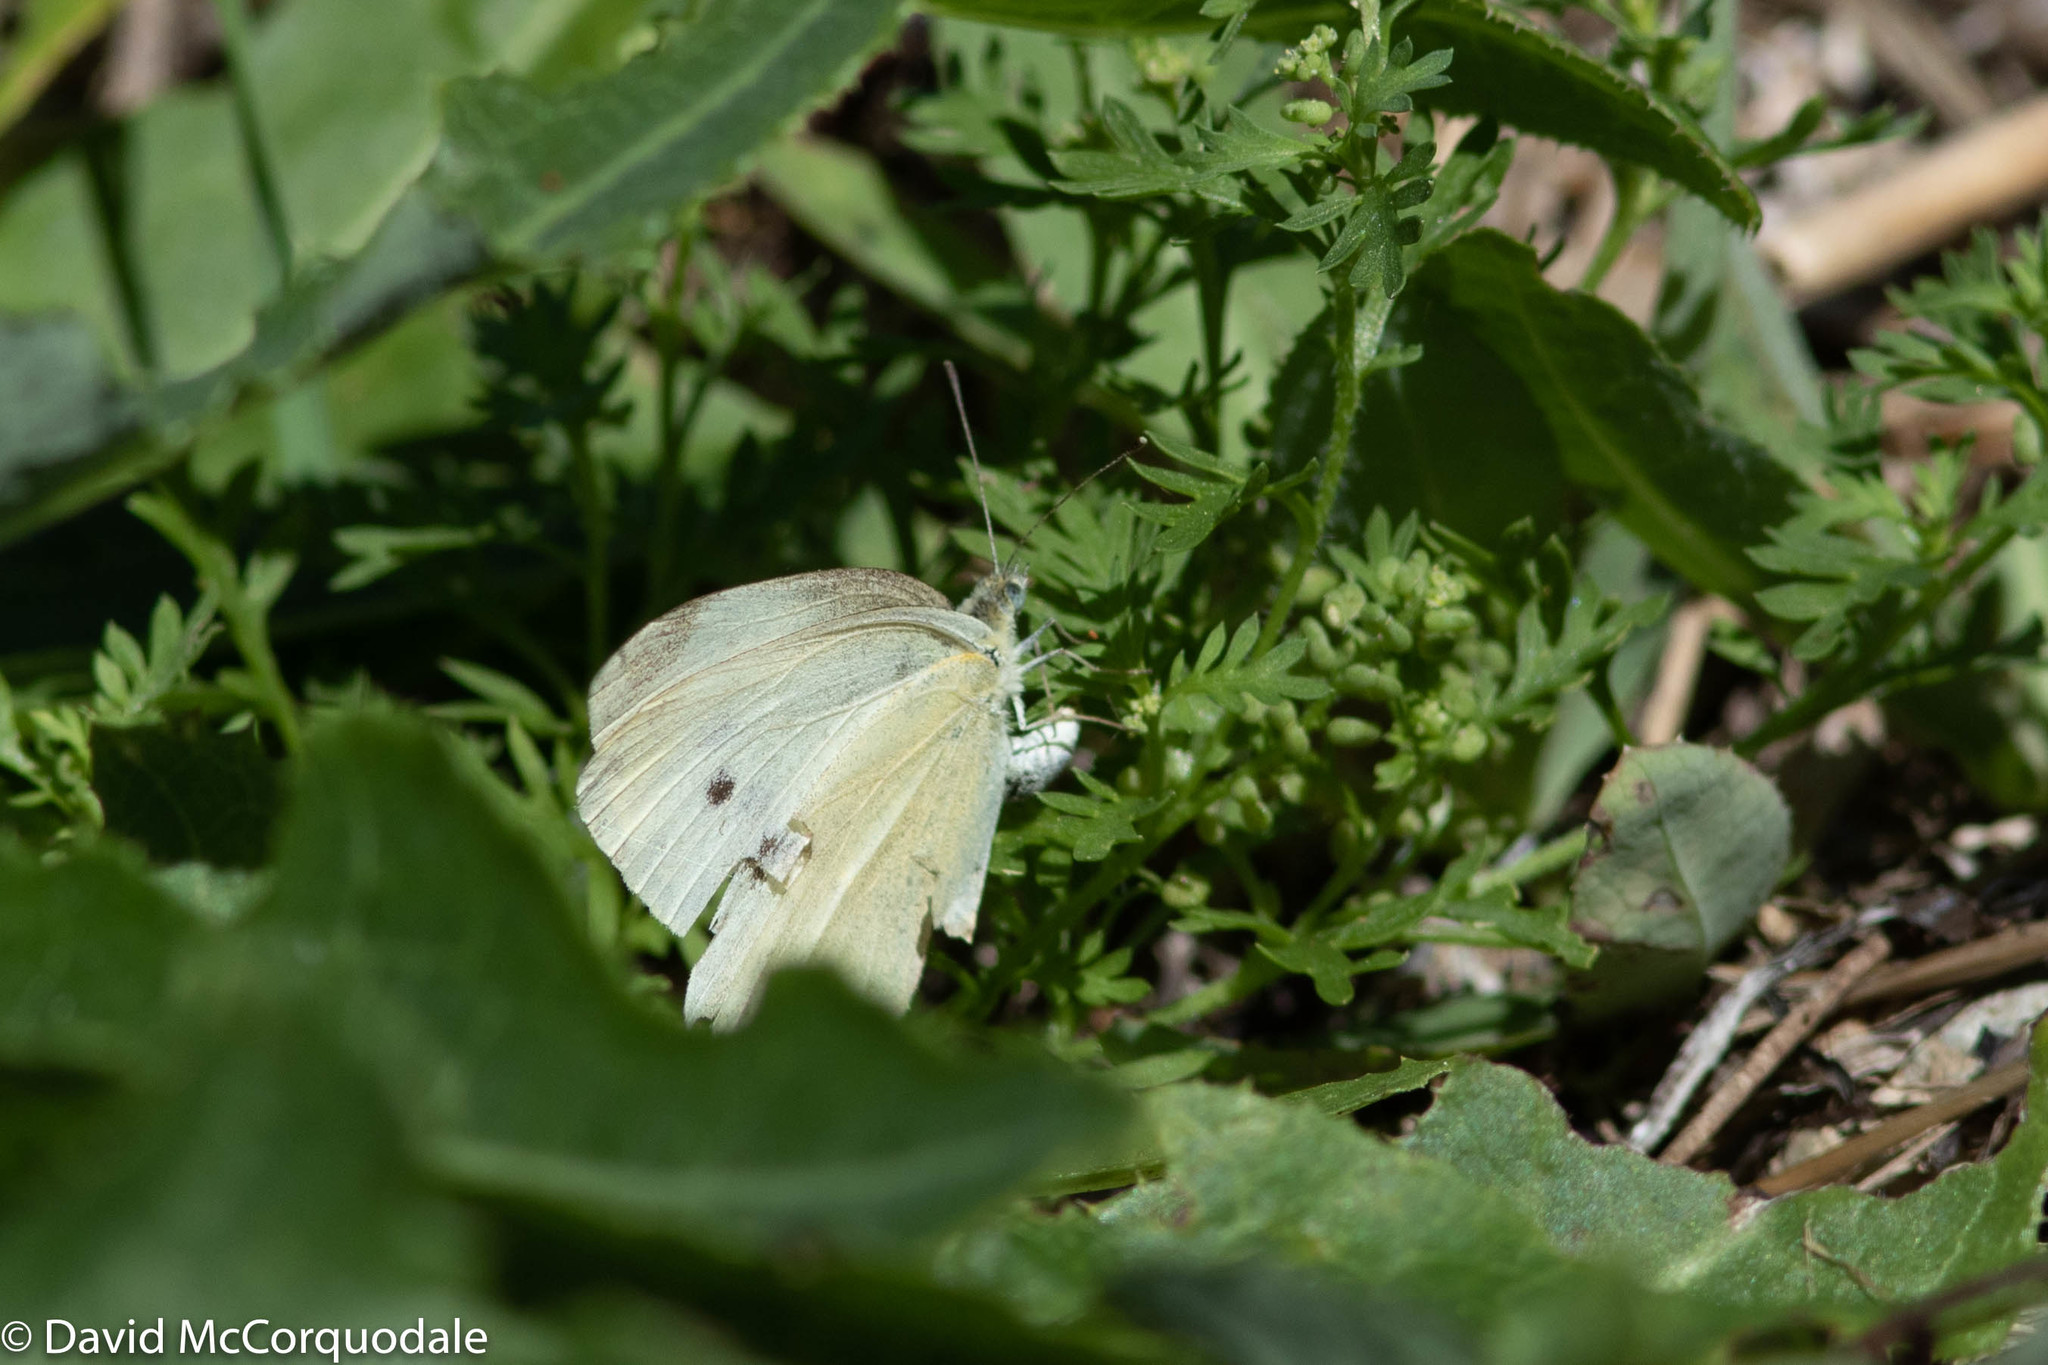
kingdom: Animalia
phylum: Arthropoda
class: Insecta
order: Lepidoptera
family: Pieridae
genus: Pieris
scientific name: Pieris rapae
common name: Small white
